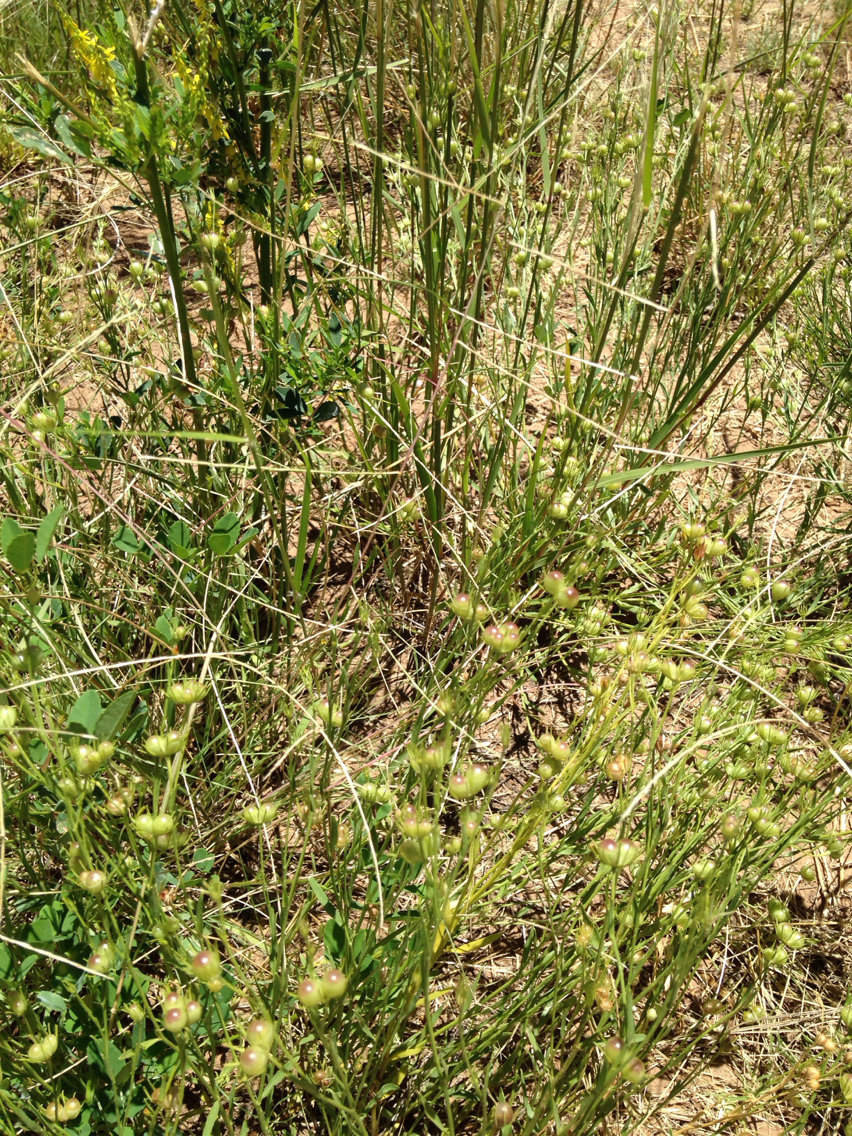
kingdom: Plantae
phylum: Tracheophyta
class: Magnoliopsida
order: Lamiales
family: Oleaceae
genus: Menodora
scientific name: Menodora scabra
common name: Rough menodora
